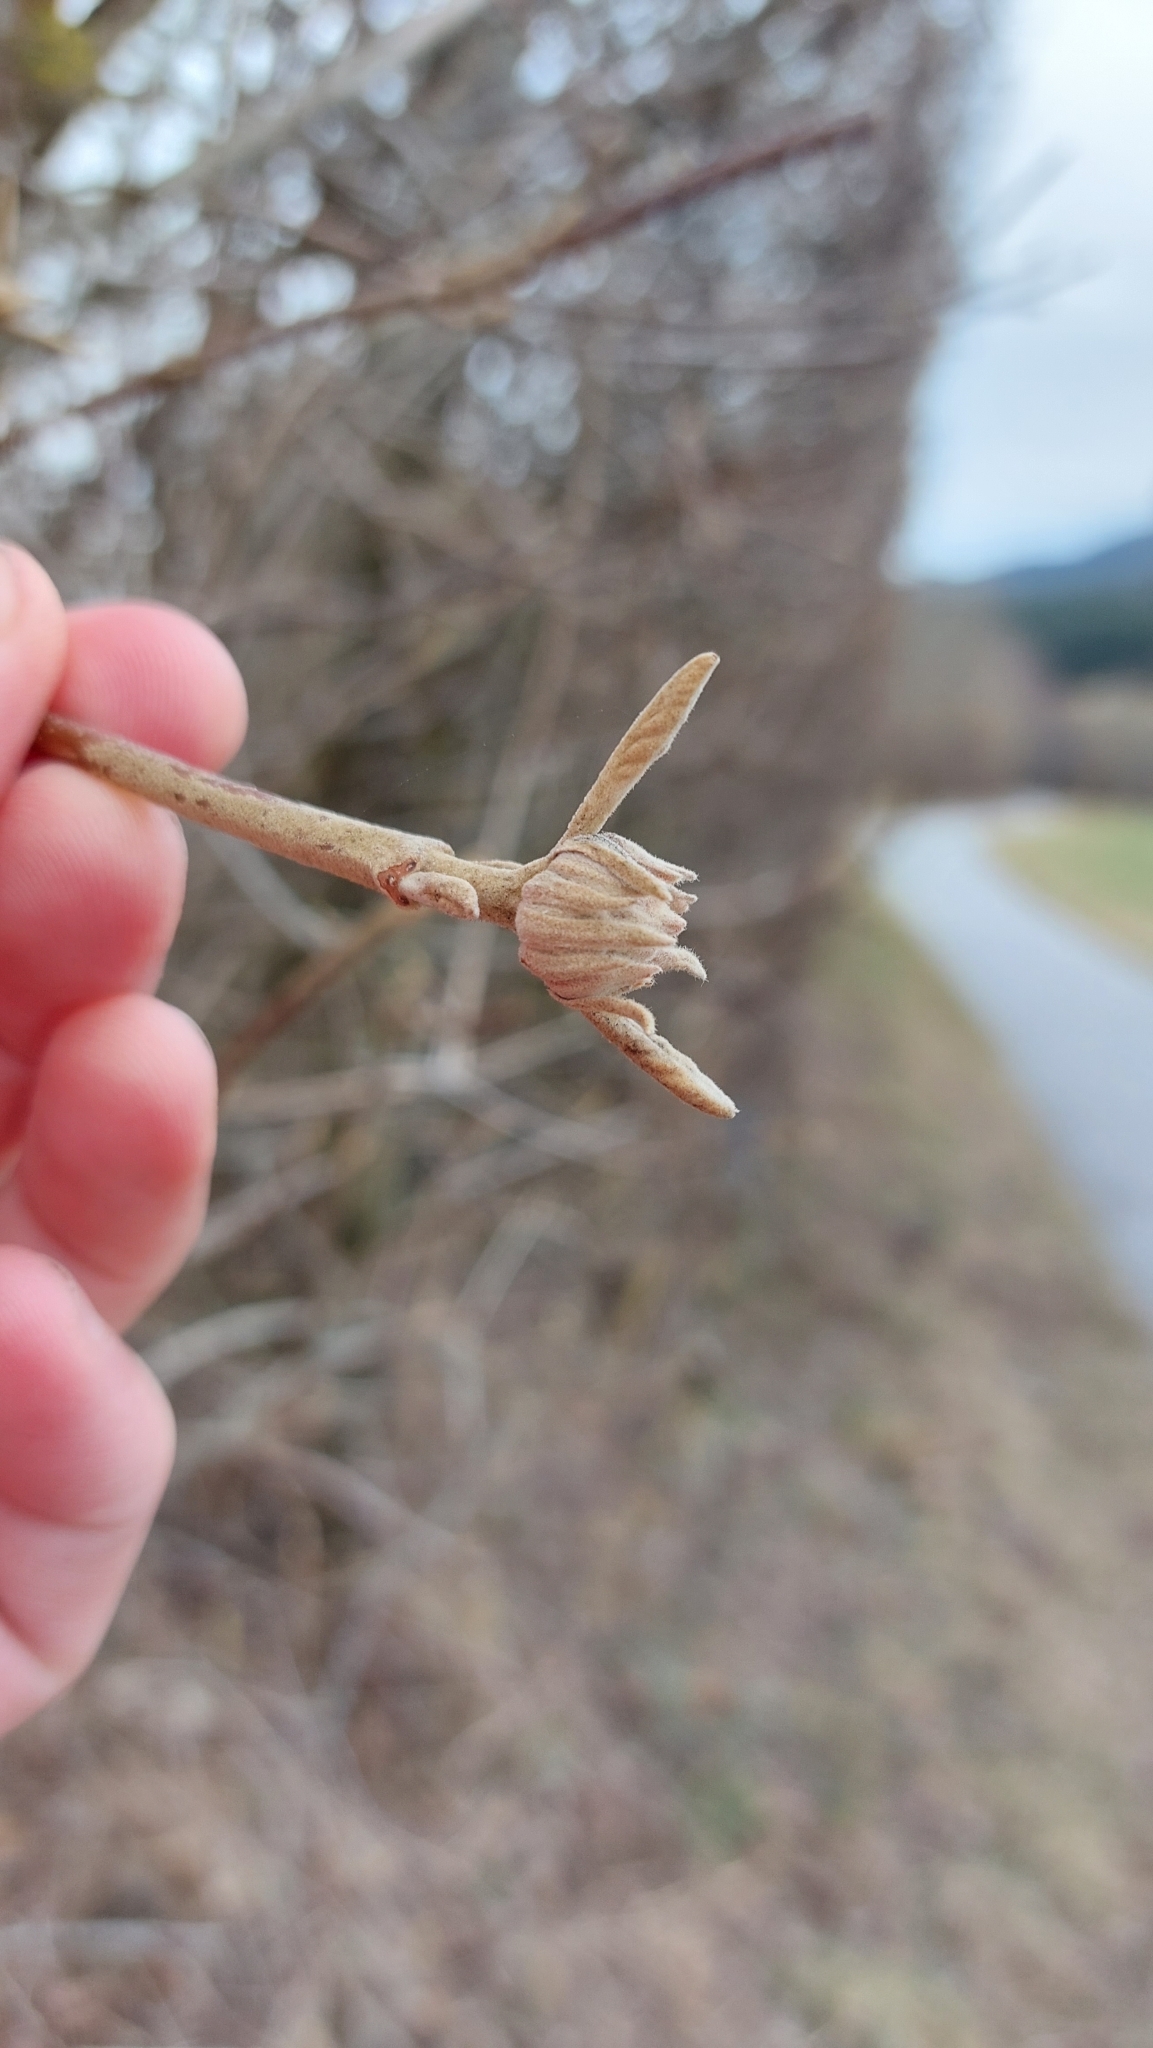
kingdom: Plantae
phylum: Tracheophyta
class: Magnoliopsida
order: Dipsacales
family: Viburnaceae
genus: Viburnum
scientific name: Viburnum lantana
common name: Wayfaring tree
